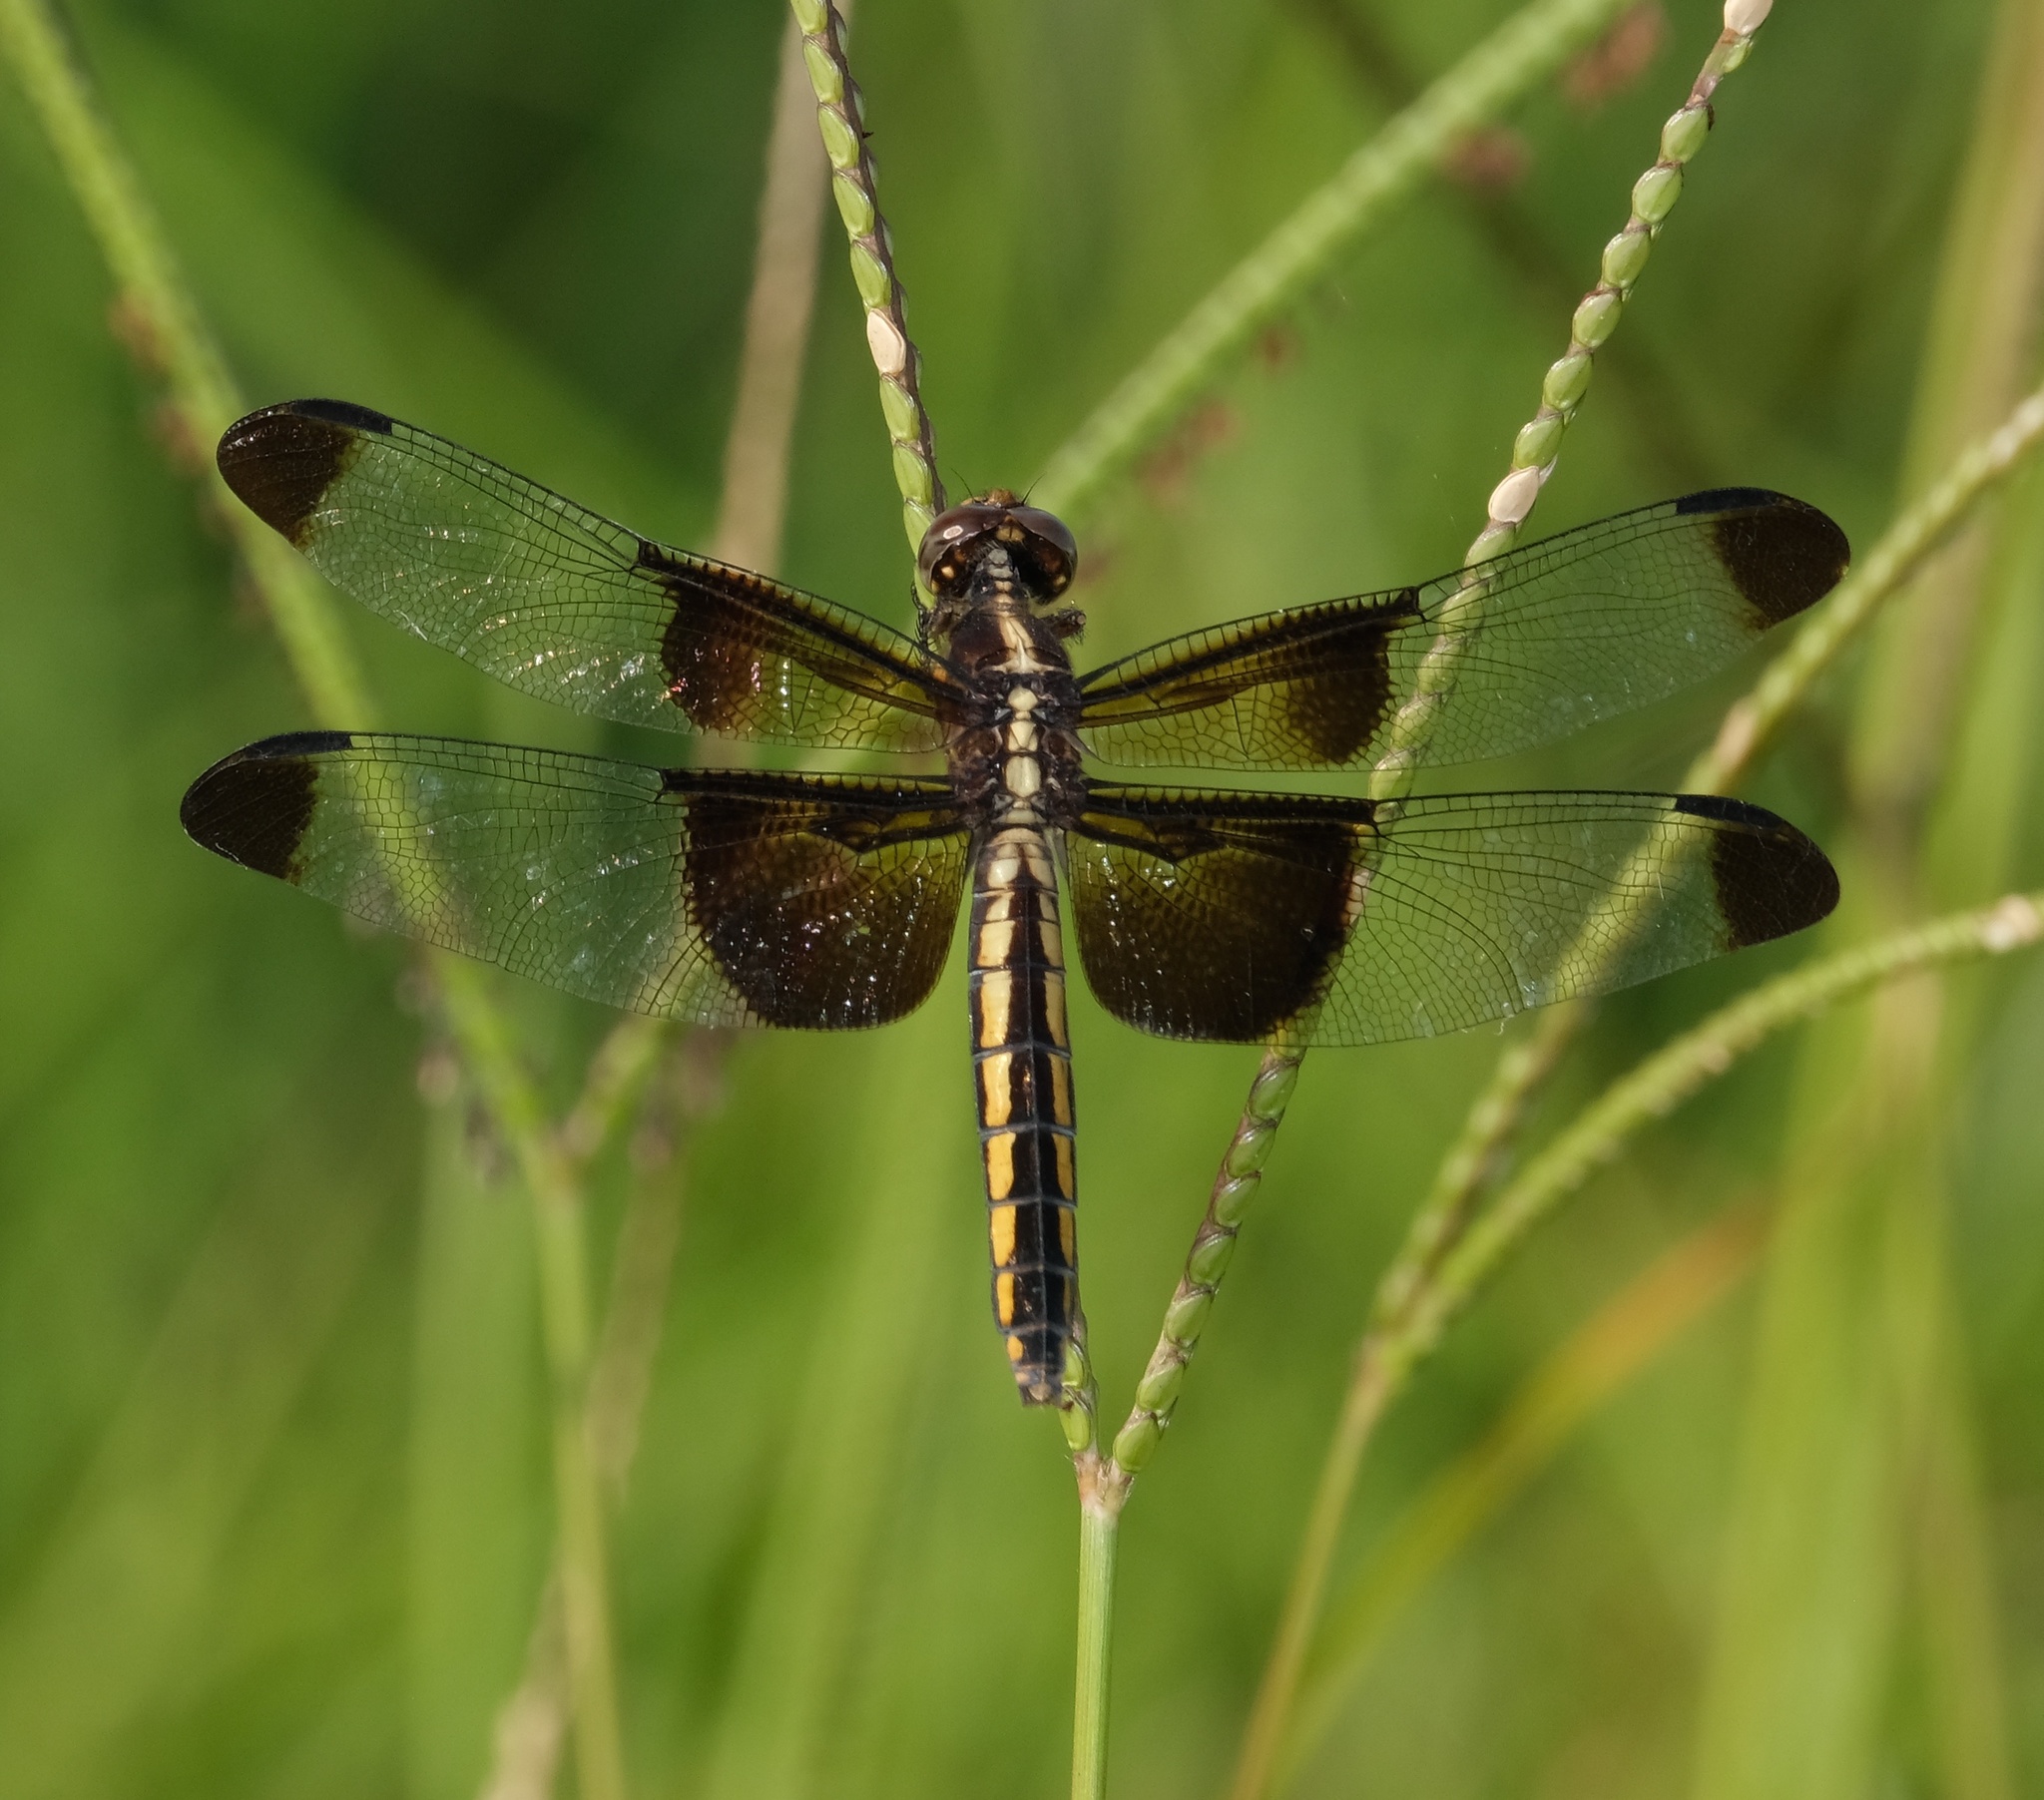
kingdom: Animalia
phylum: Arthropoda
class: Insecta
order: Odonata
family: Libellulidae
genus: Libellula
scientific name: Libellula luctuosa
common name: Widow skimmer
